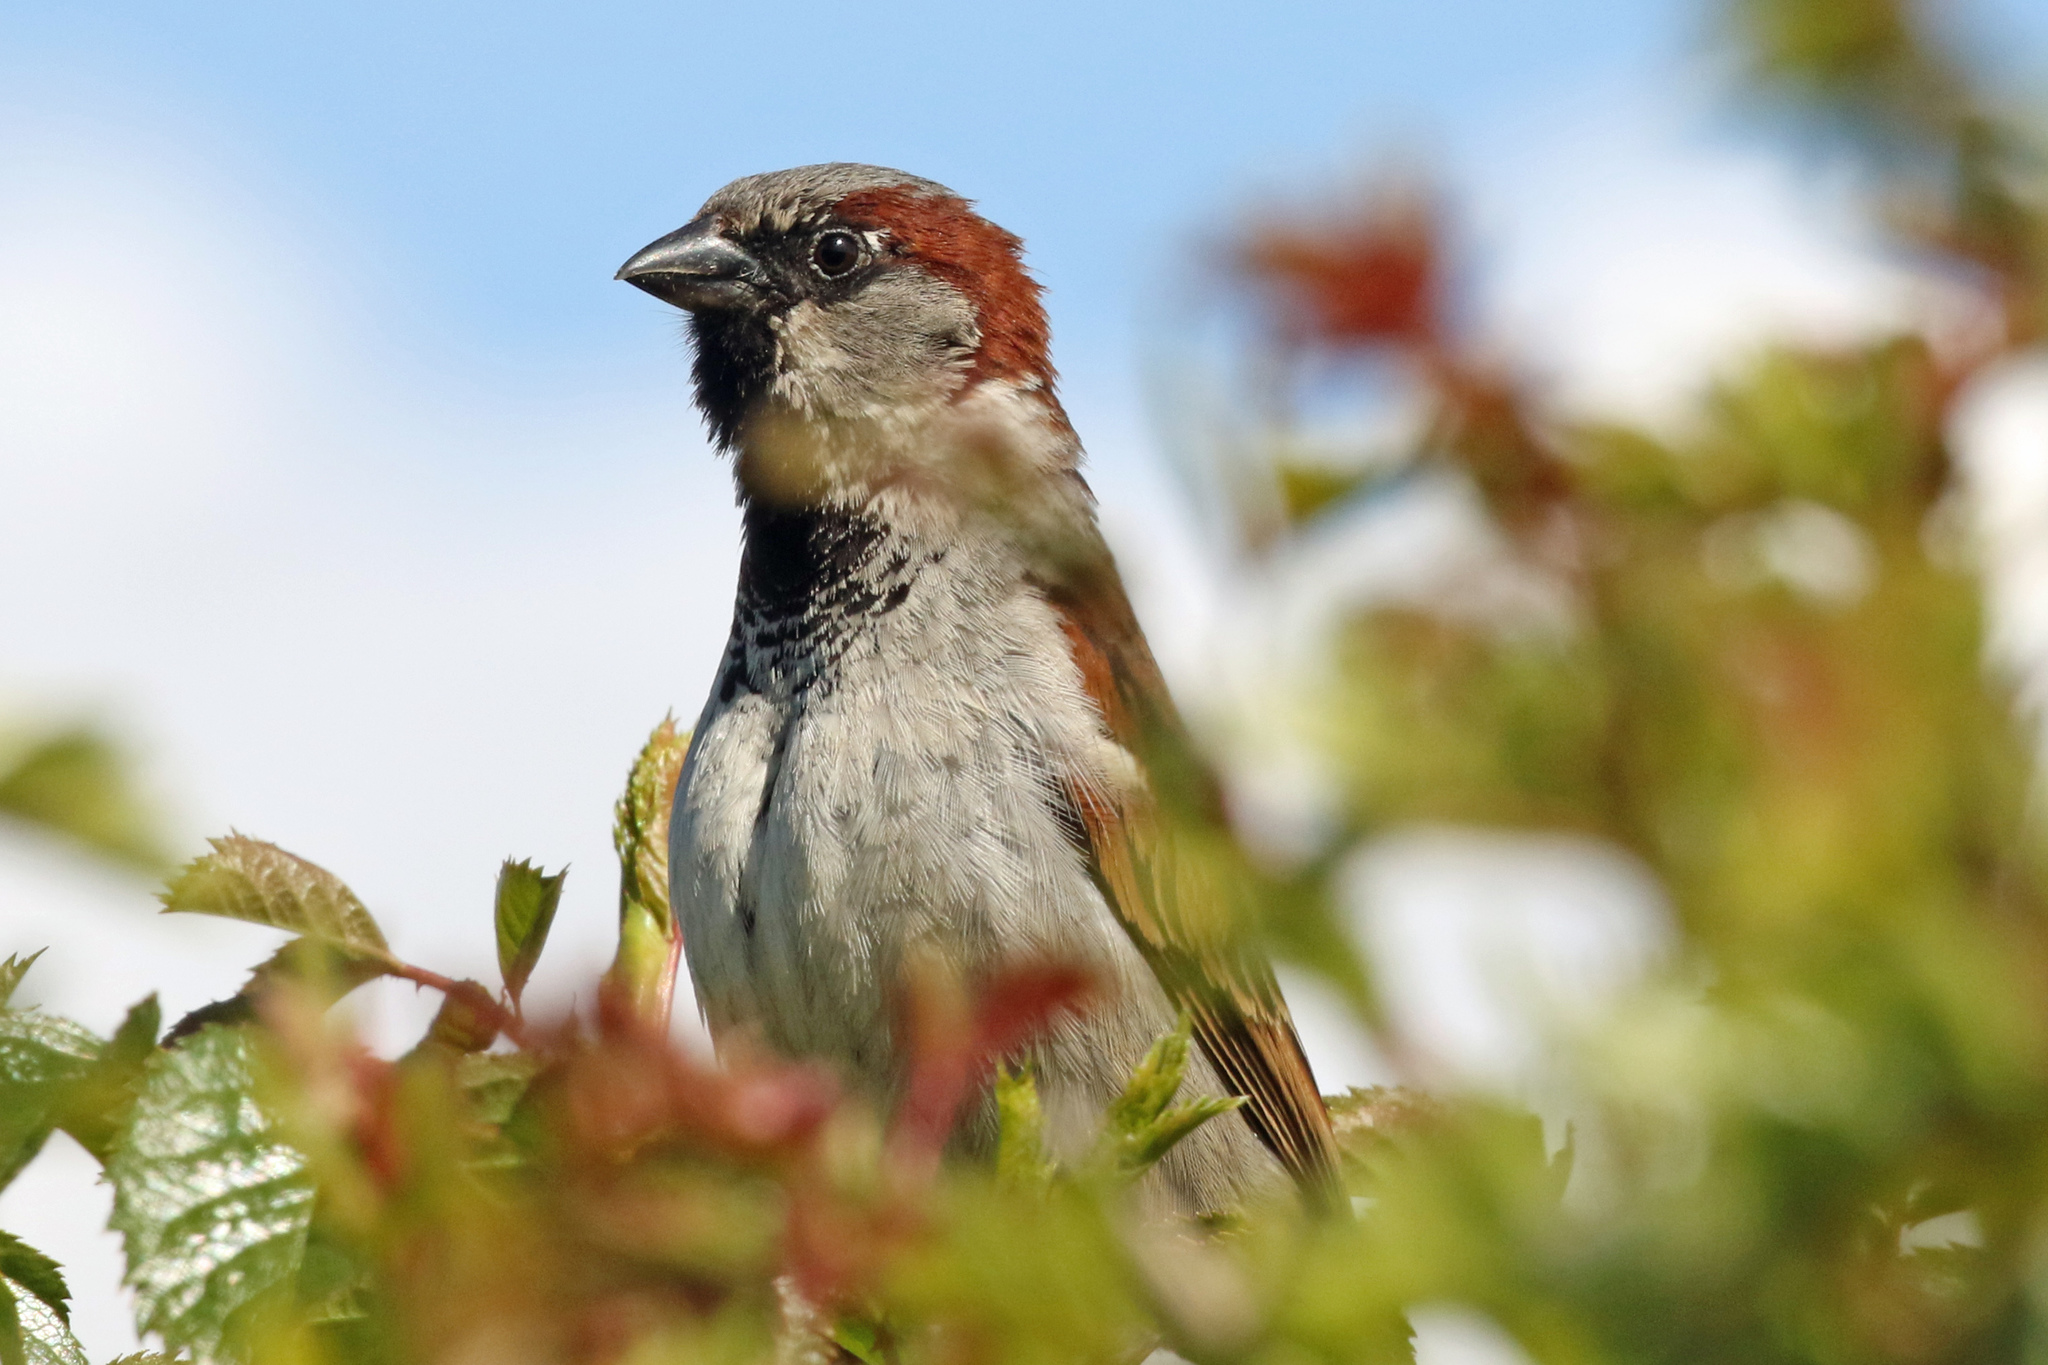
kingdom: Animalia
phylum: Chordata
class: Aves
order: Passeriformes
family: Passeridae
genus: Passer
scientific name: Passer domesticus
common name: House sparrow
